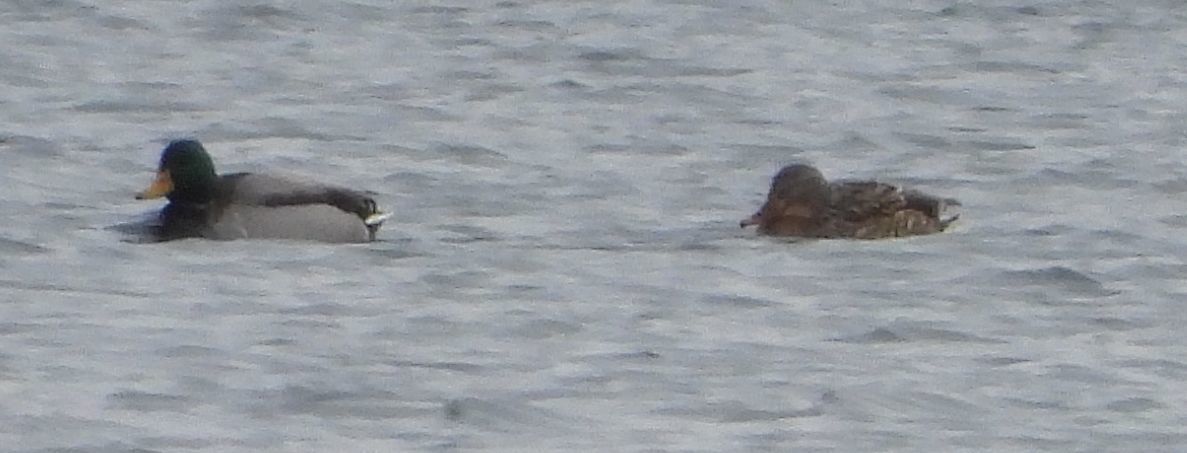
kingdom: Animalia
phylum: Chordata
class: Aves
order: Anseriformes
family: Anatidae
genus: Anas
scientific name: Anas platyrhynchos
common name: Mallard
